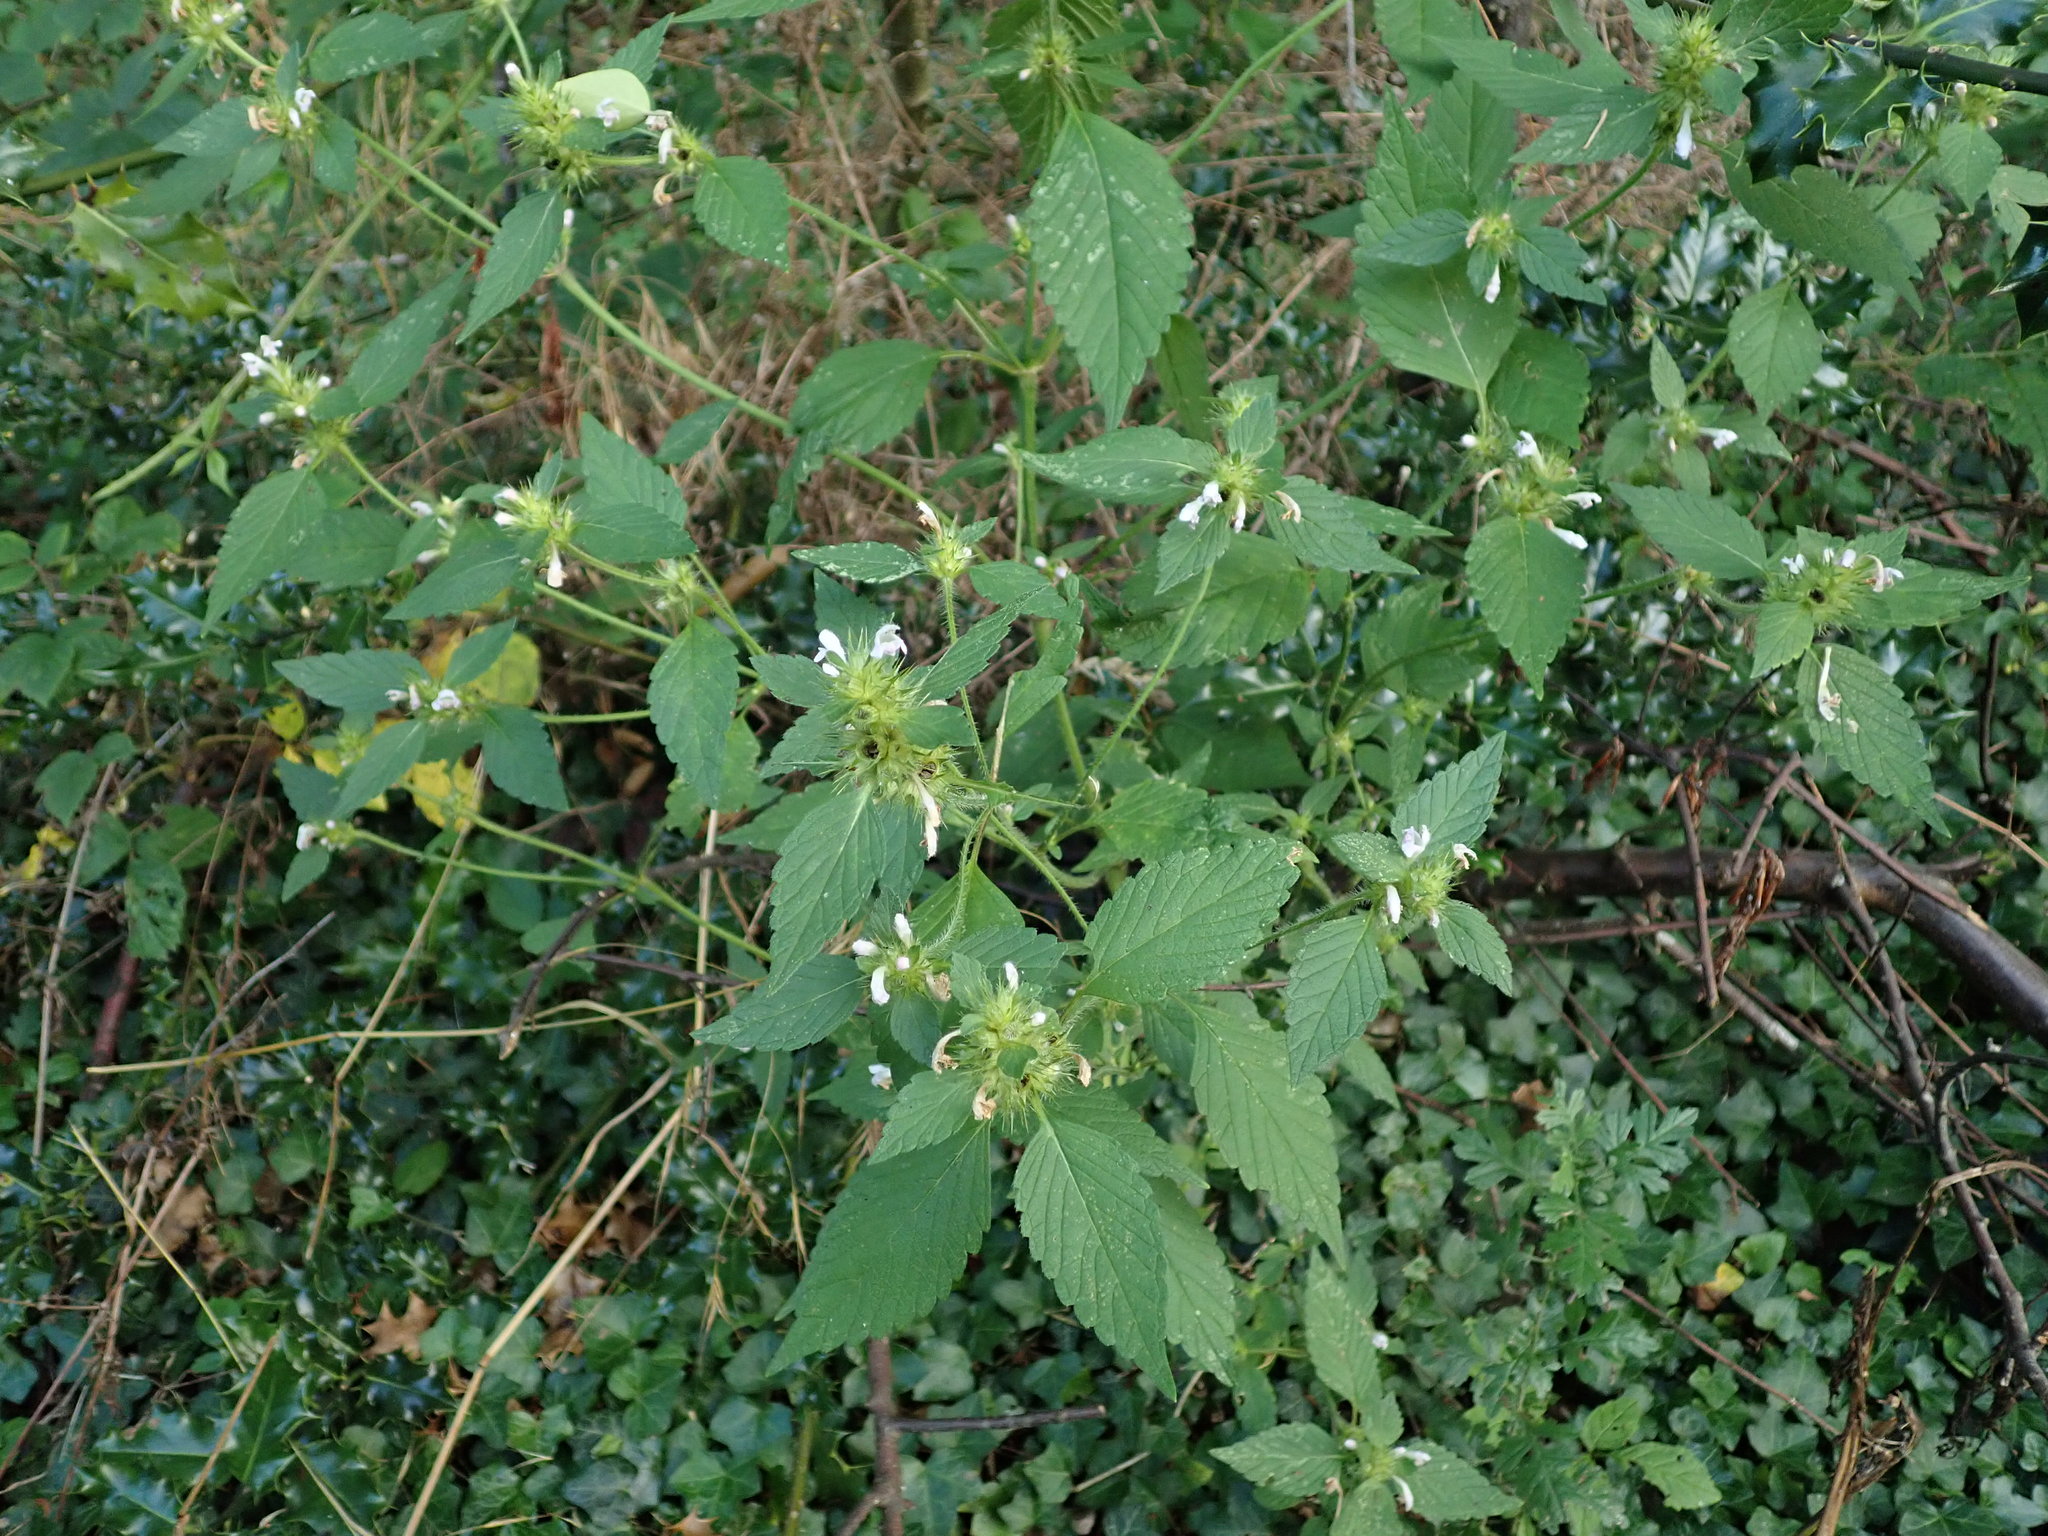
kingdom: Plantae
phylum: Tracheophyta
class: Magnoliopsida
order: Lamiales
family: Lamiaceae
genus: Galeopsis
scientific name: Galeopsis tetrahit
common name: Common hemp-nettle
